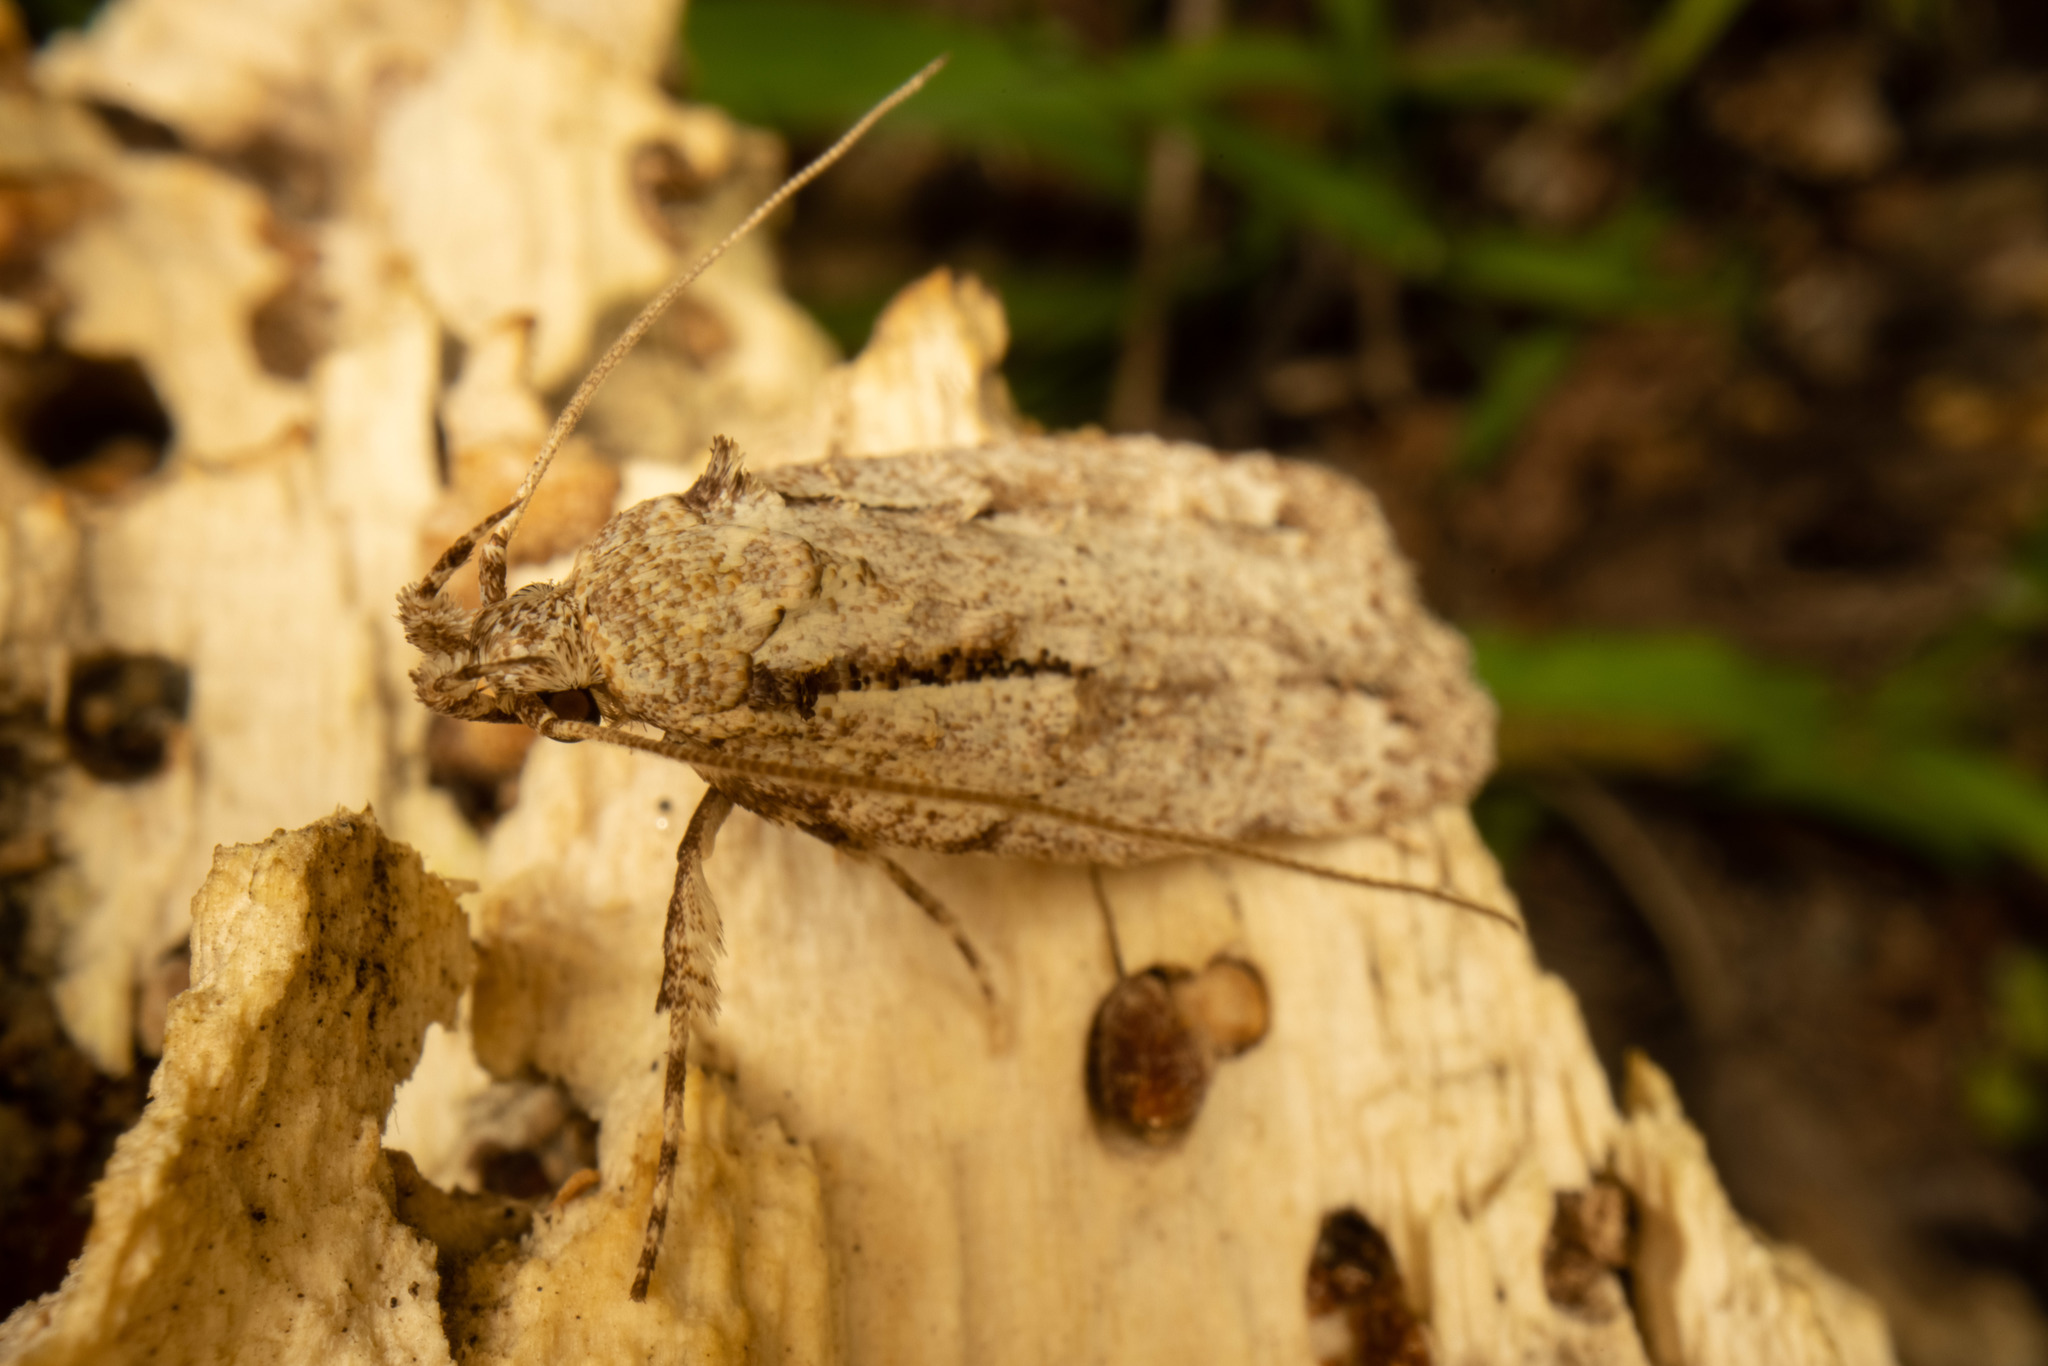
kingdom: Animalia
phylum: Arthropoda
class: Insecta
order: Lepidoptera
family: Oecophoridae
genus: Izatha
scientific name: Izatha attactella
